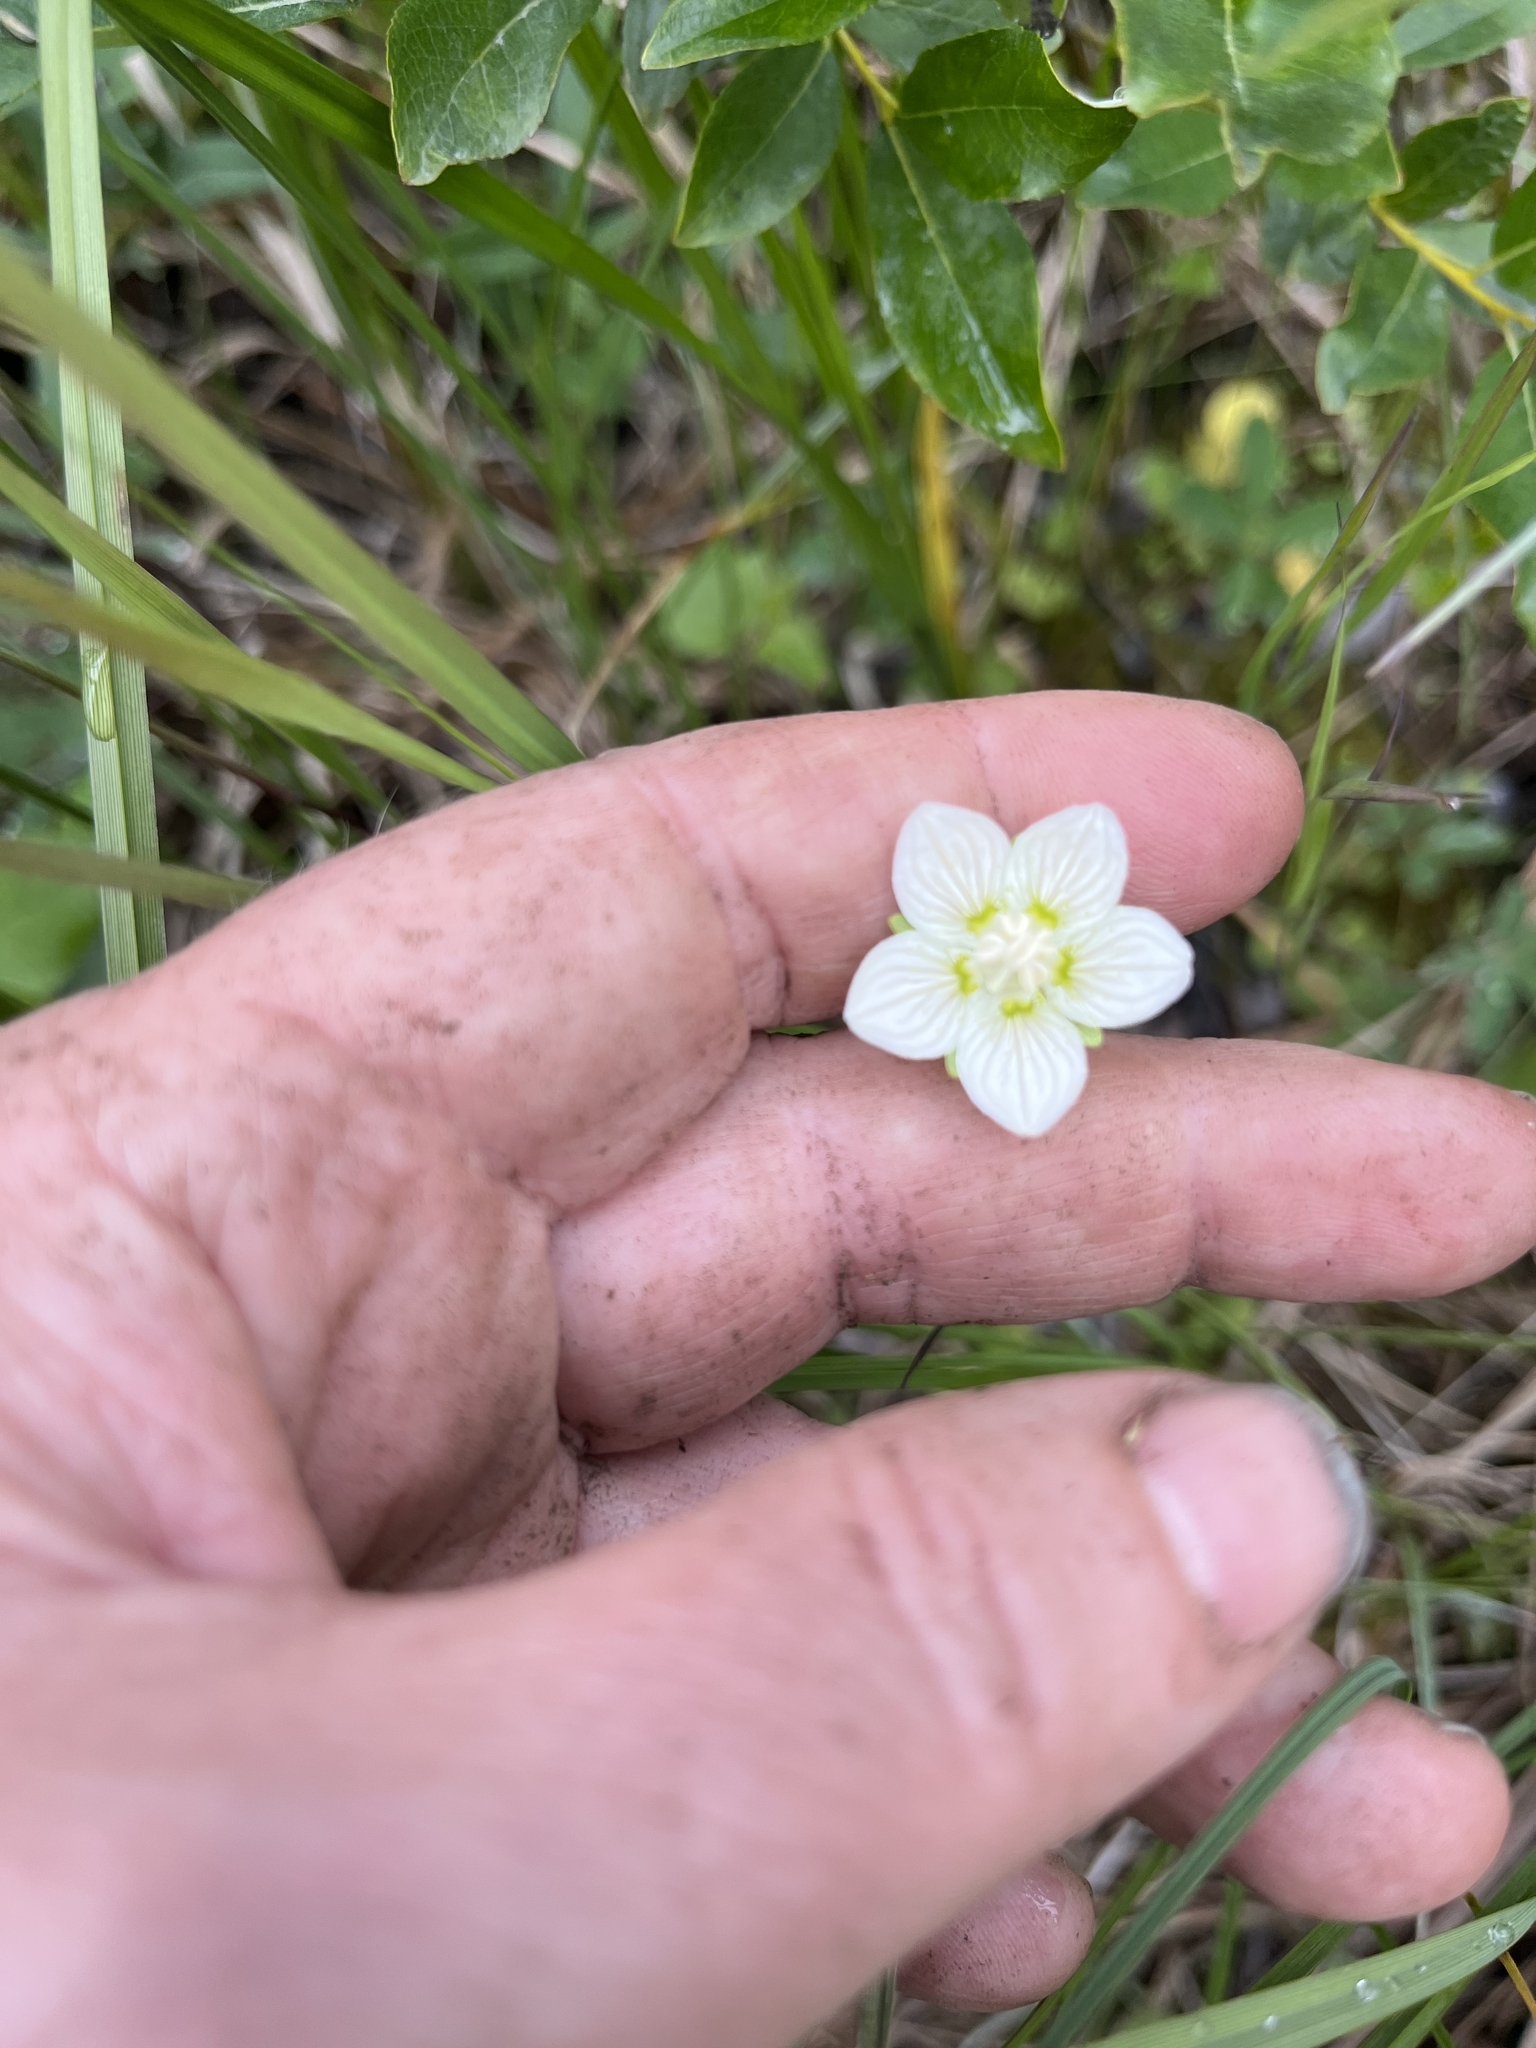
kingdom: Plantae
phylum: Tracheophyta
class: Magnoliopsida
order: Celastrales
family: Parnassiaceae
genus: Parnassia
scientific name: Parnassia palustris
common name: Grass-of-parnassus
